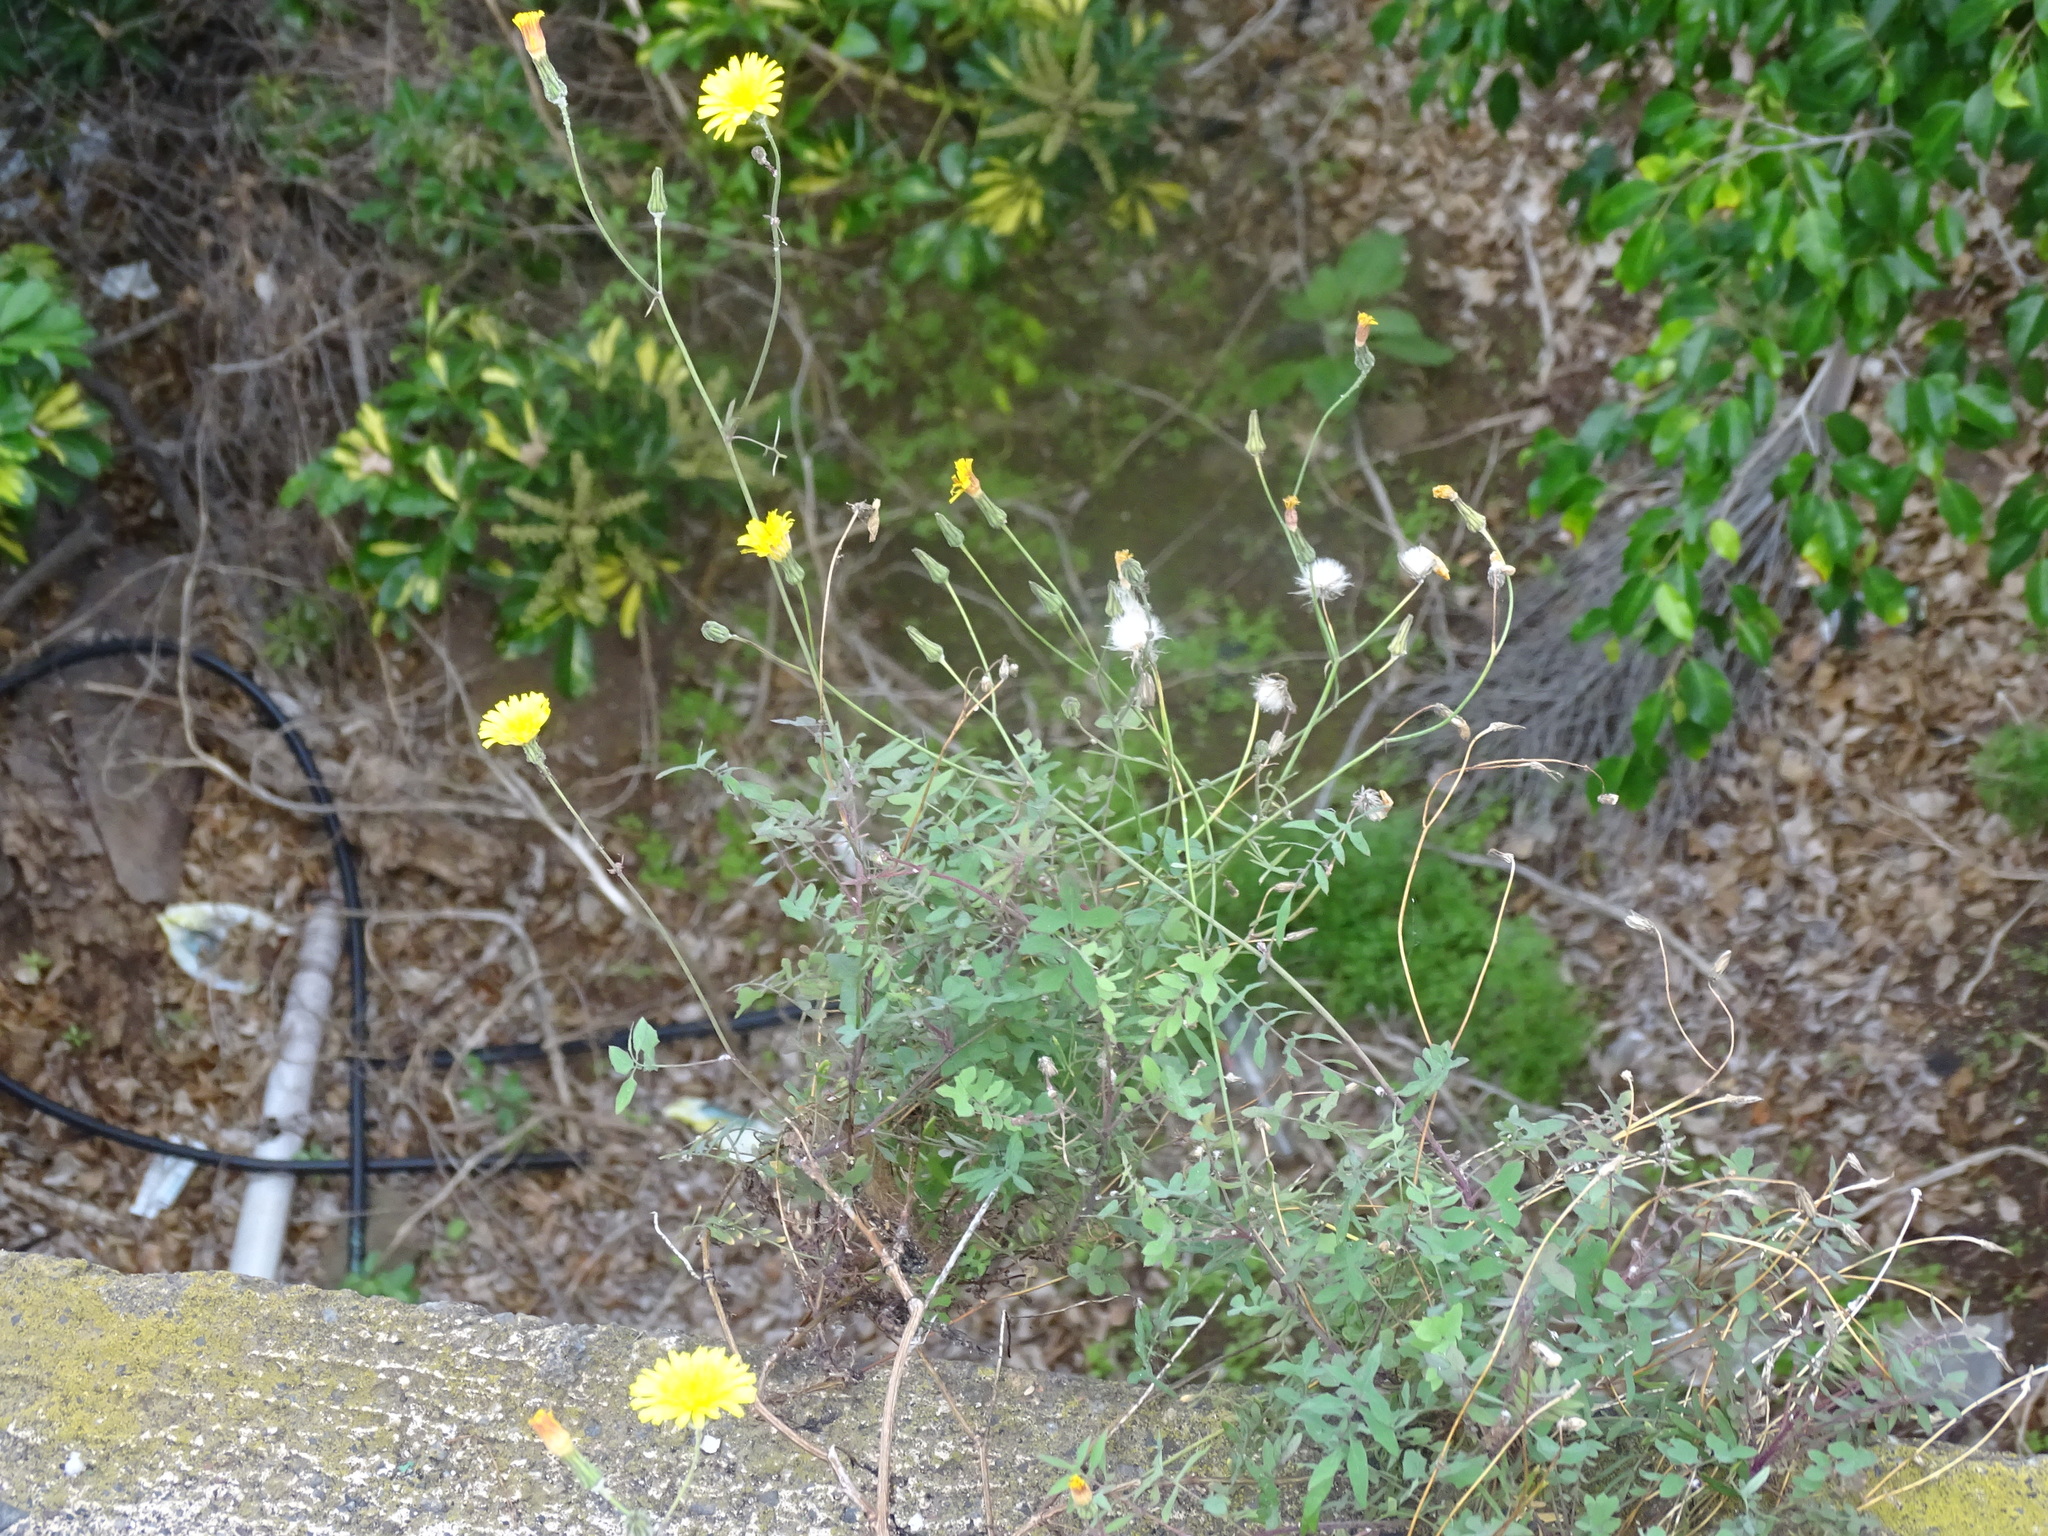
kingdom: Plantae
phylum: Tracheophyta
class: Magnoliopsida
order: Asterales
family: Asteraceae
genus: Sonchus
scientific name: Sonchus tenerrimus
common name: Clammy sowthistle
